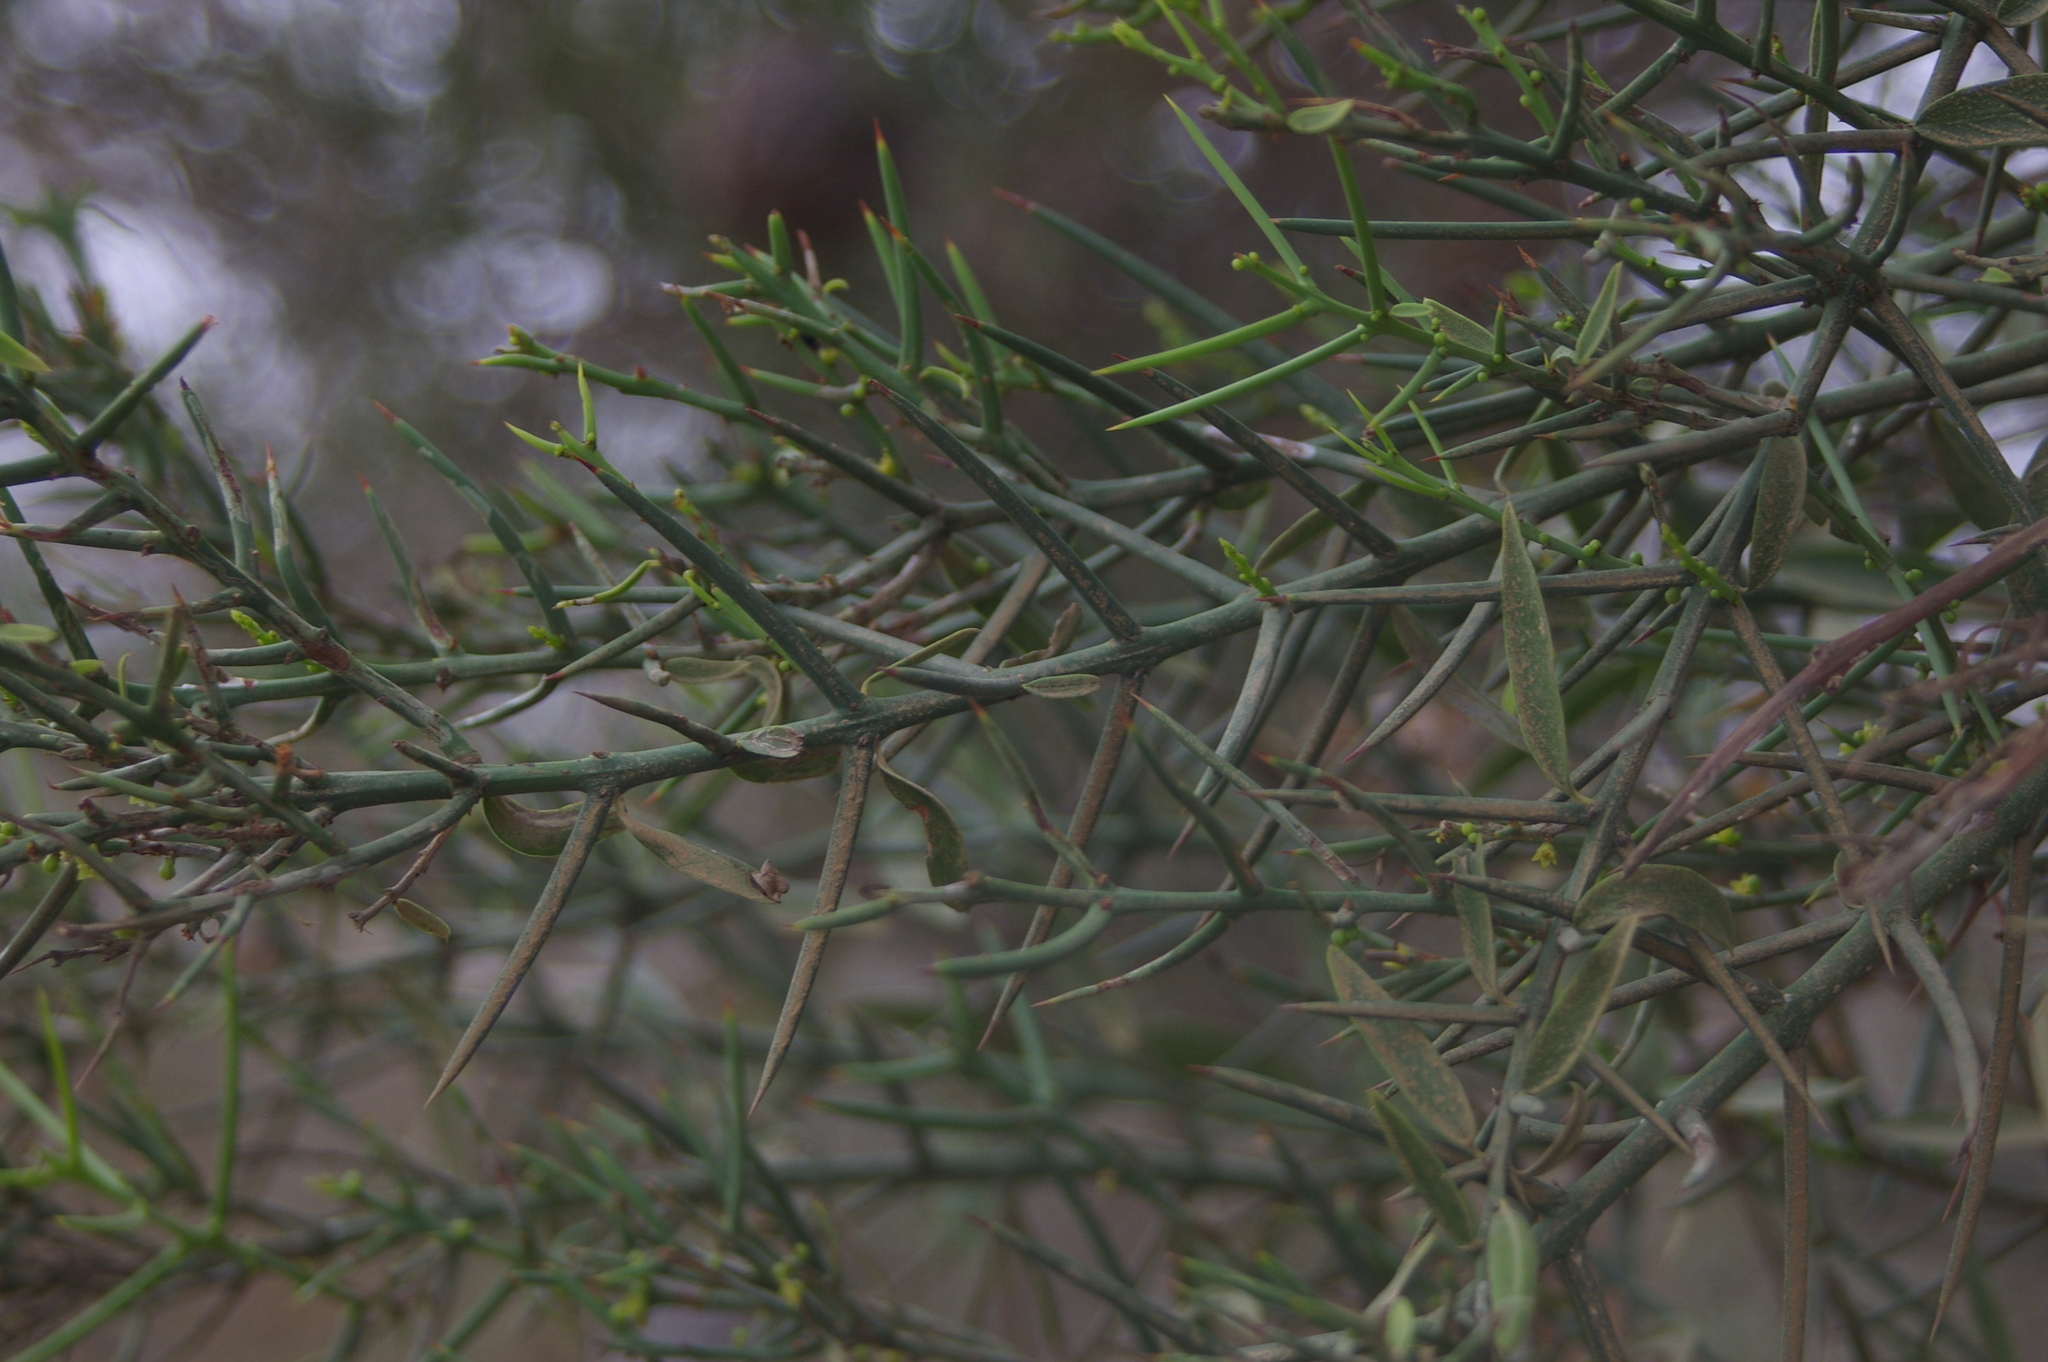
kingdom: Plantae
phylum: Tracheophyta
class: Magnoliopsida
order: Rosales
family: Rhamnaceae
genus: Scutia
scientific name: Scutia spicata
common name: Spiny bush
